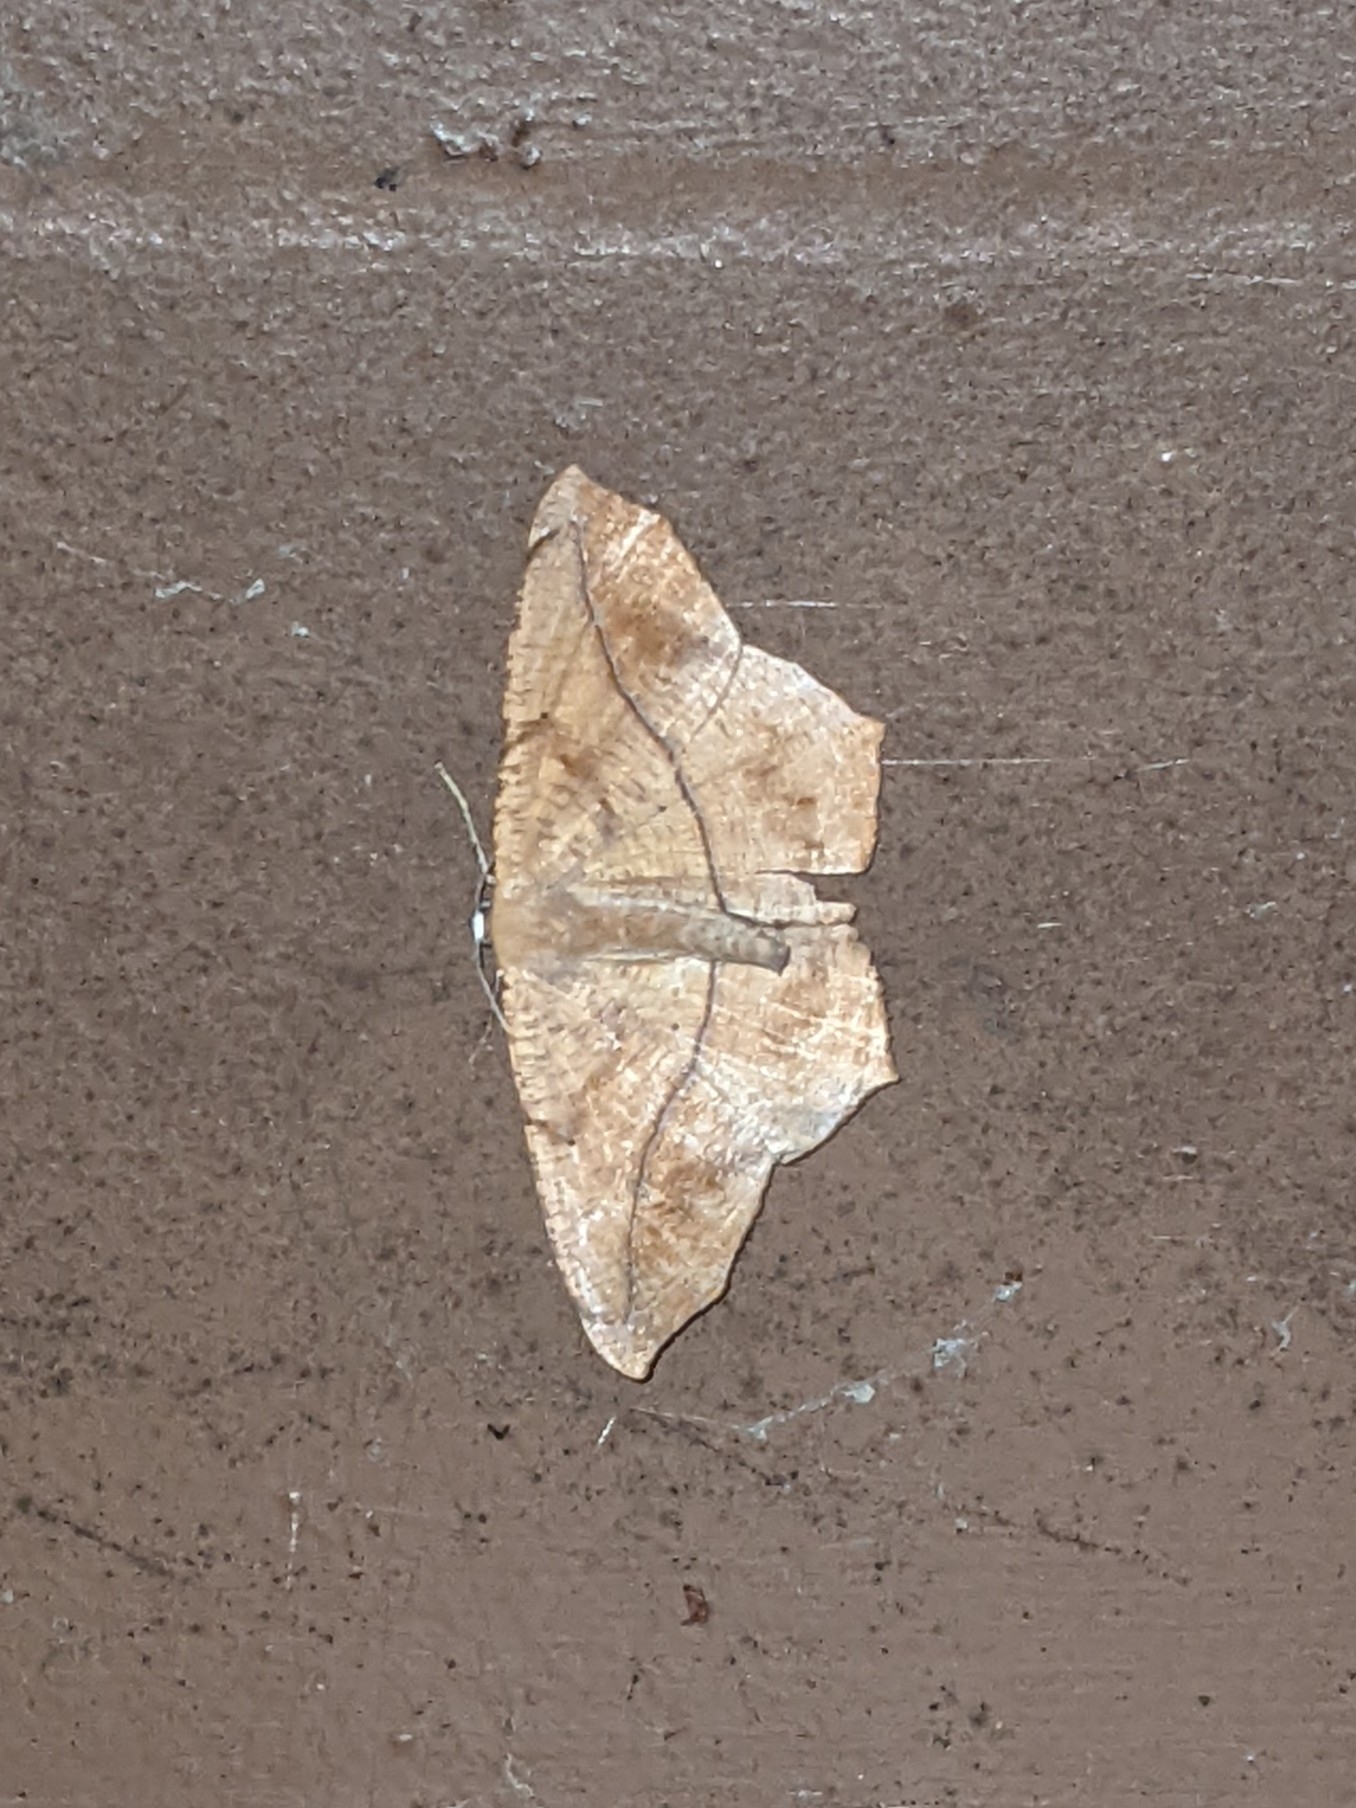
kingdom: Animalia
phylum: Arthropoda
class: Insecta
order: Lepidoptera
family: Geometridae
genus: Prochoerodes
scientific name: Prochoerodes lineola
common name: Large maple spanworm
